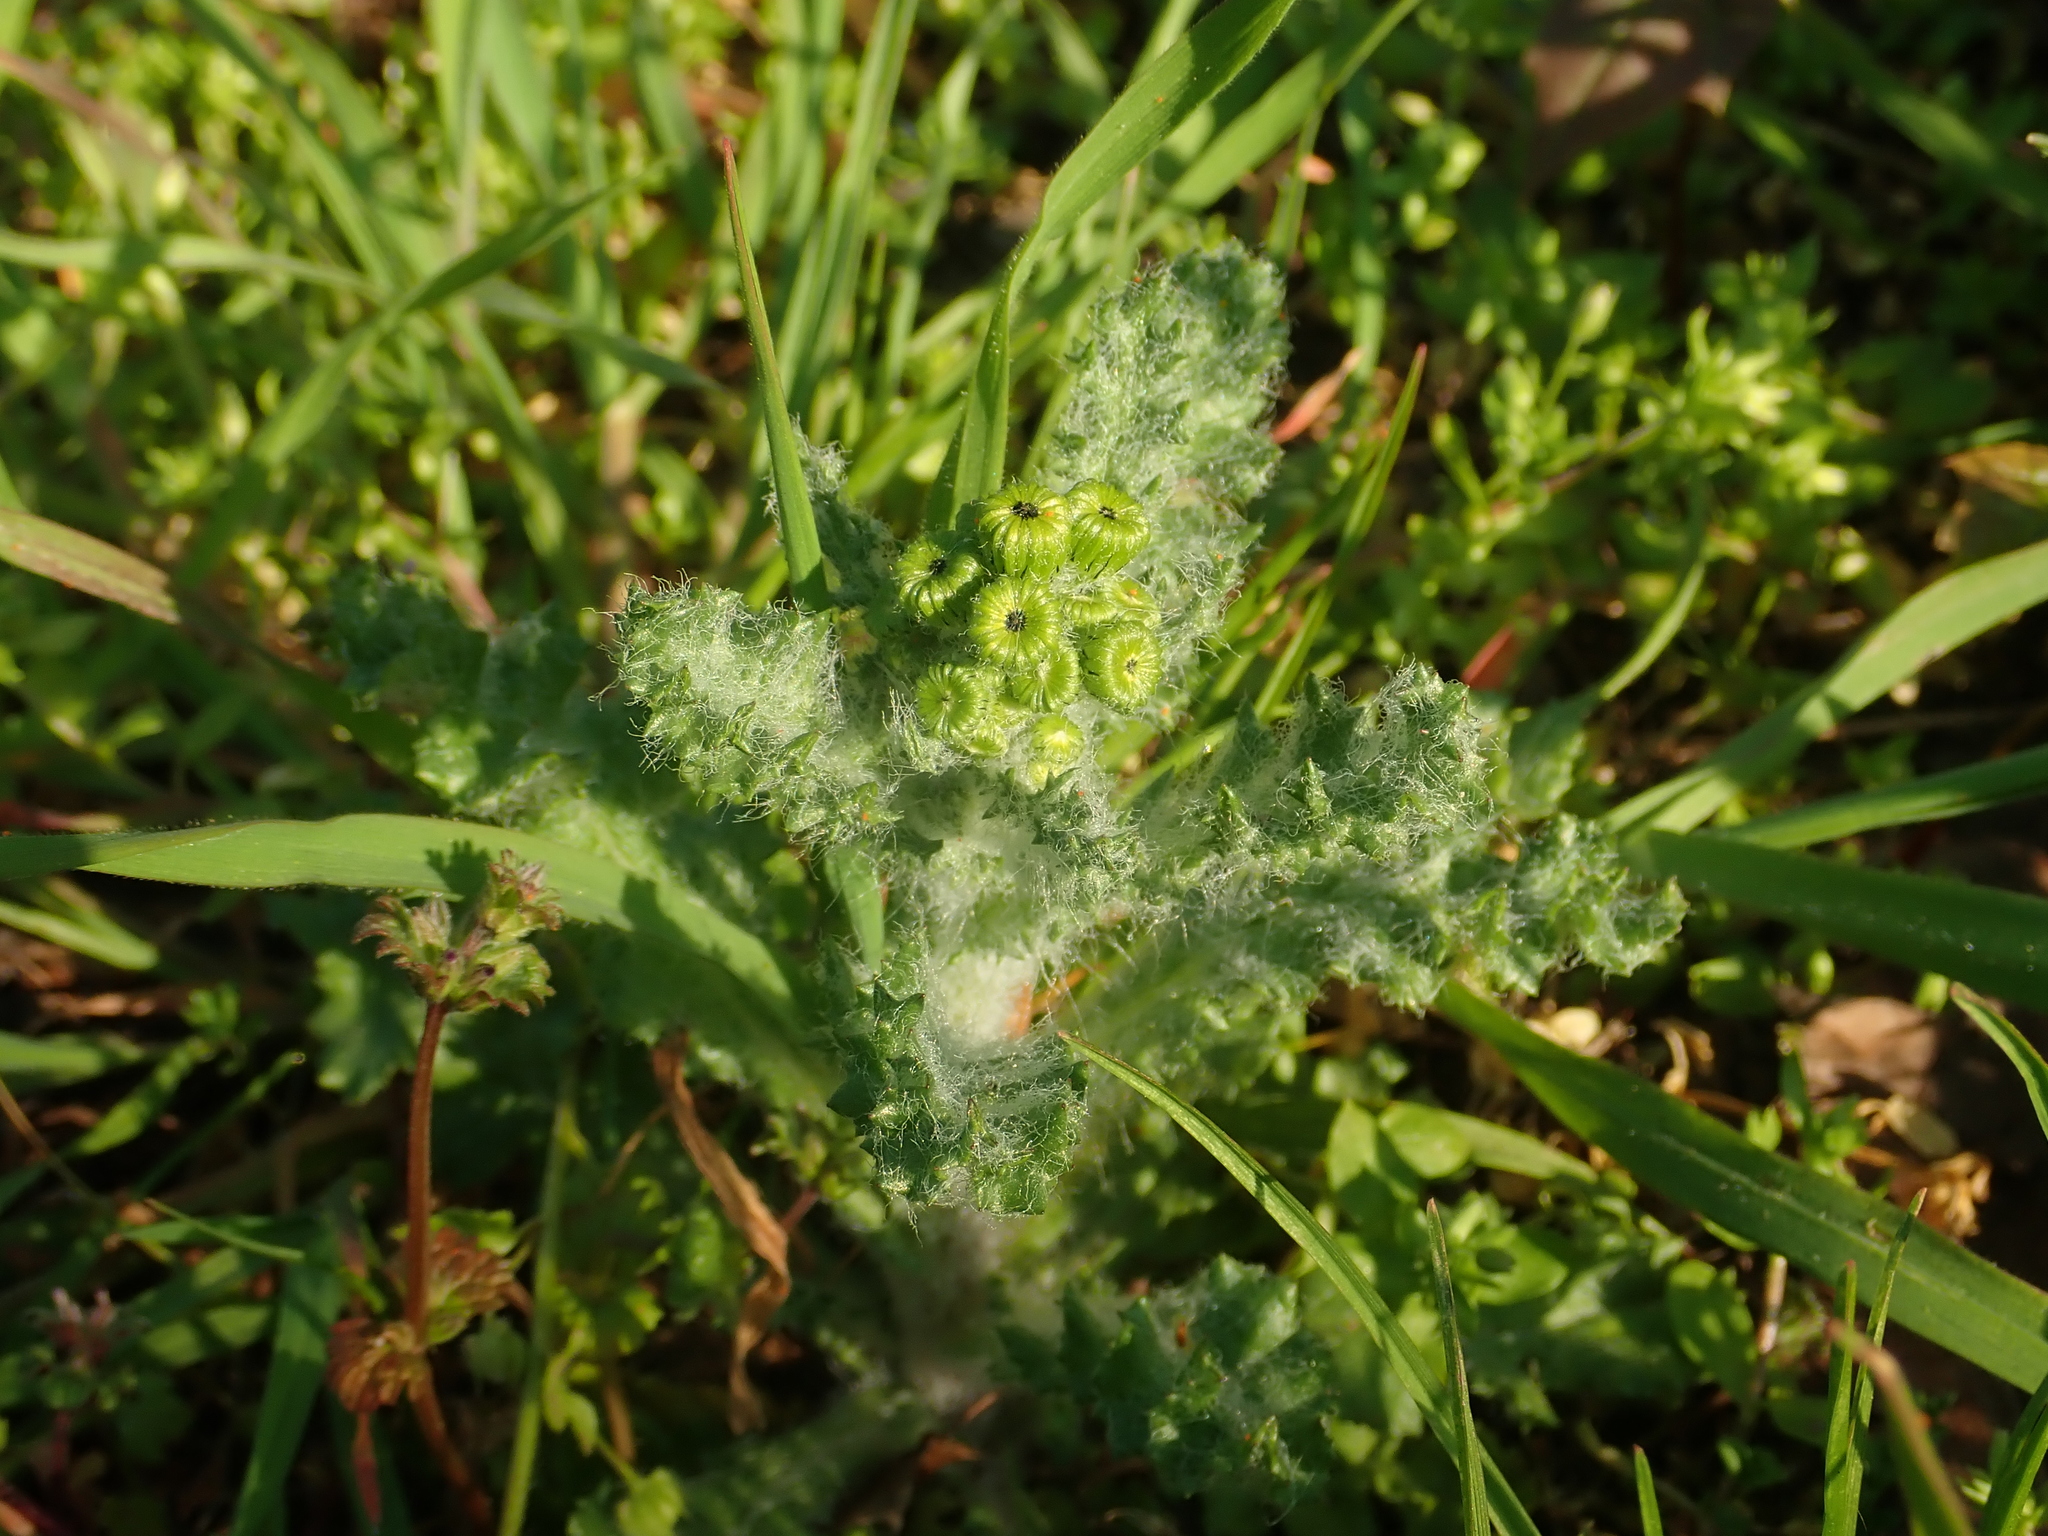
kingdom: Plantae
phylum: Tracheophyta
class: Magnoliopsida
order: Asterales
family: Asteraceae
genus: Senecio
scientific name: Senecio vernalis
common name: Eastern groundsel
